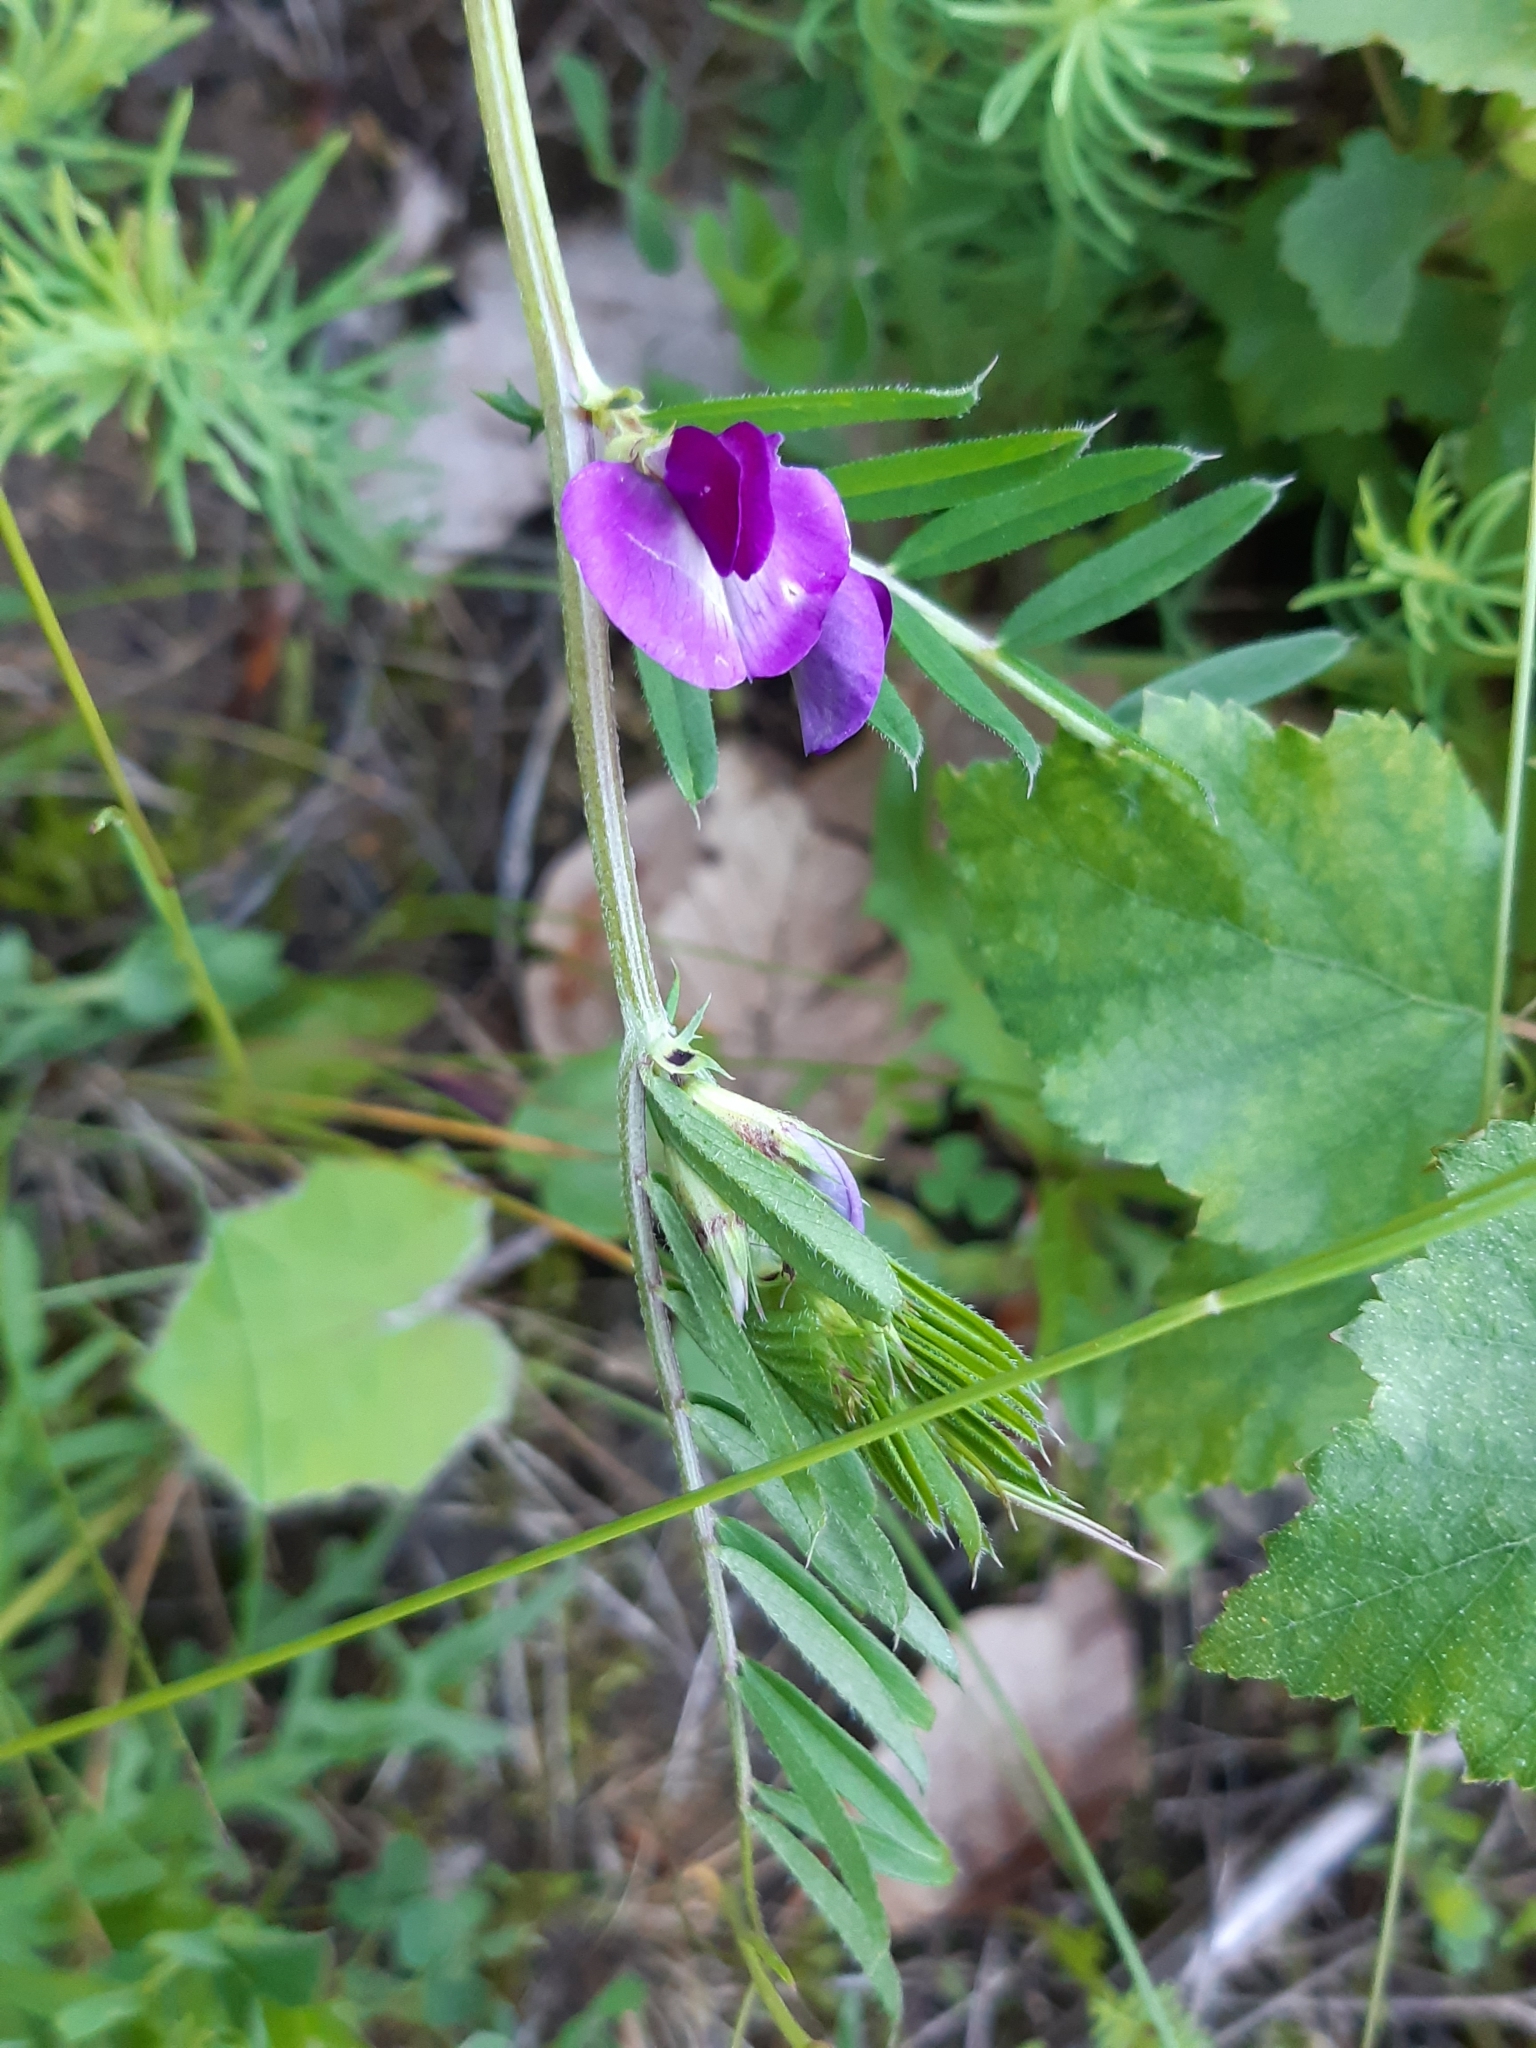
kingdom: Plantae
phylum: Tracheophyta
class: Magnoliopsida
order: Fabales
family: Fabaceae
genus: Vicia
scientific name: Vicia sativa
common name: Garden vetch
